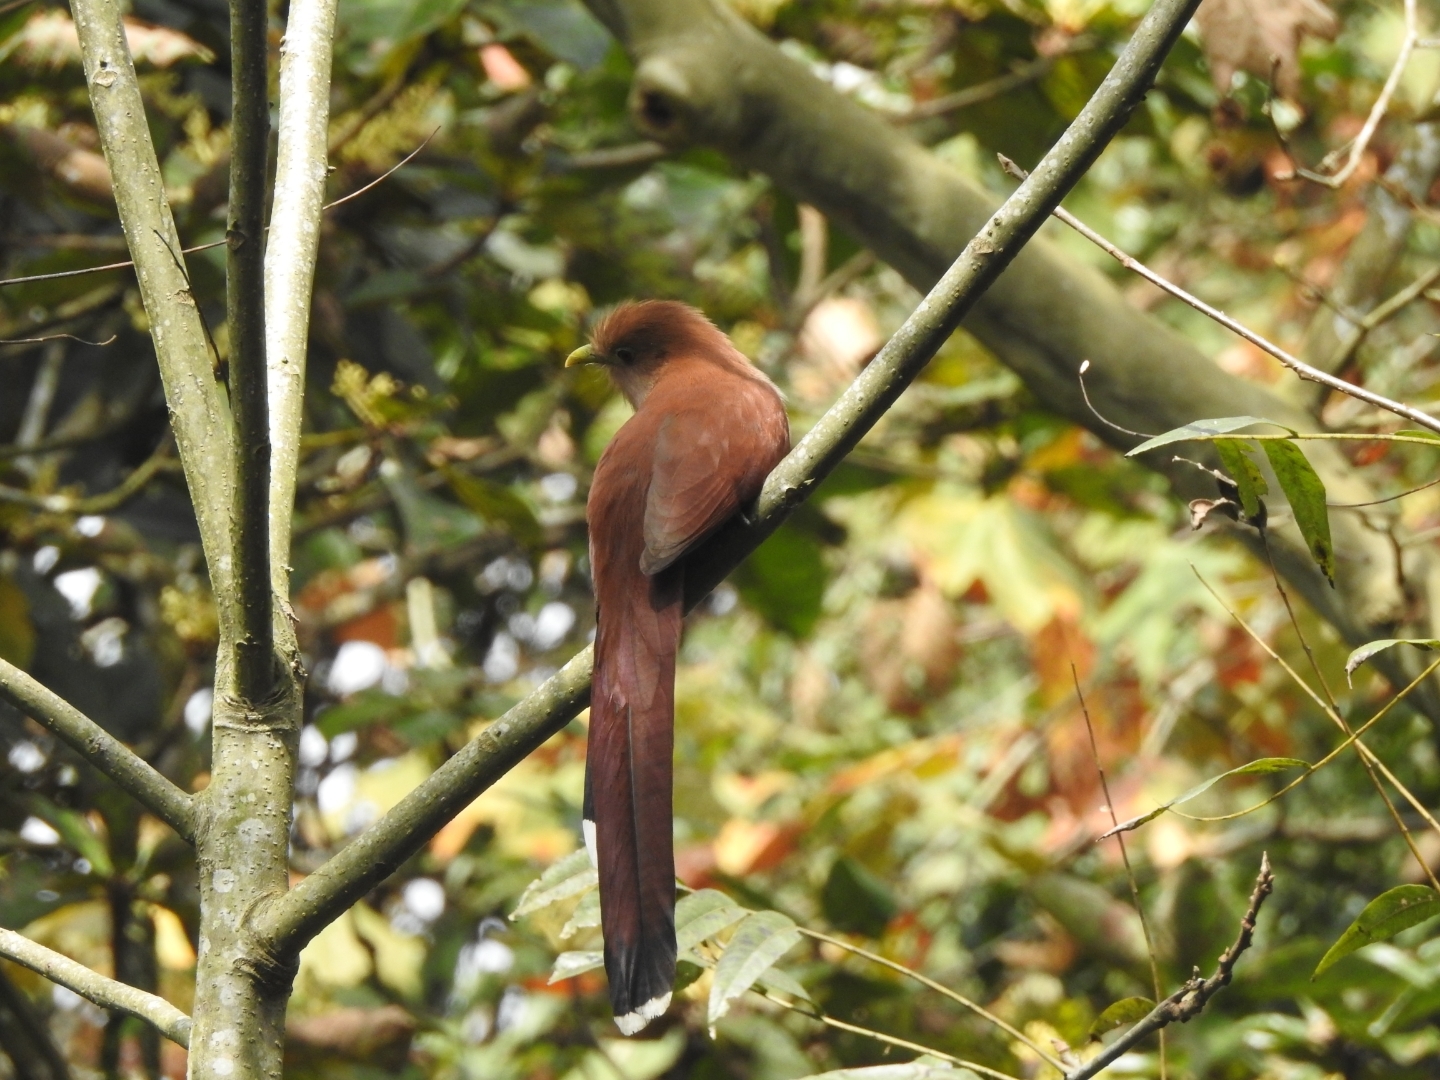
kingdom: Animalia
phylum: Chordata
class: Aves
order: Cuculiformes
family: Cuculidae
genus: Piaya
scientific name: Piaya cayana
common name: Squirrel cuckoo
